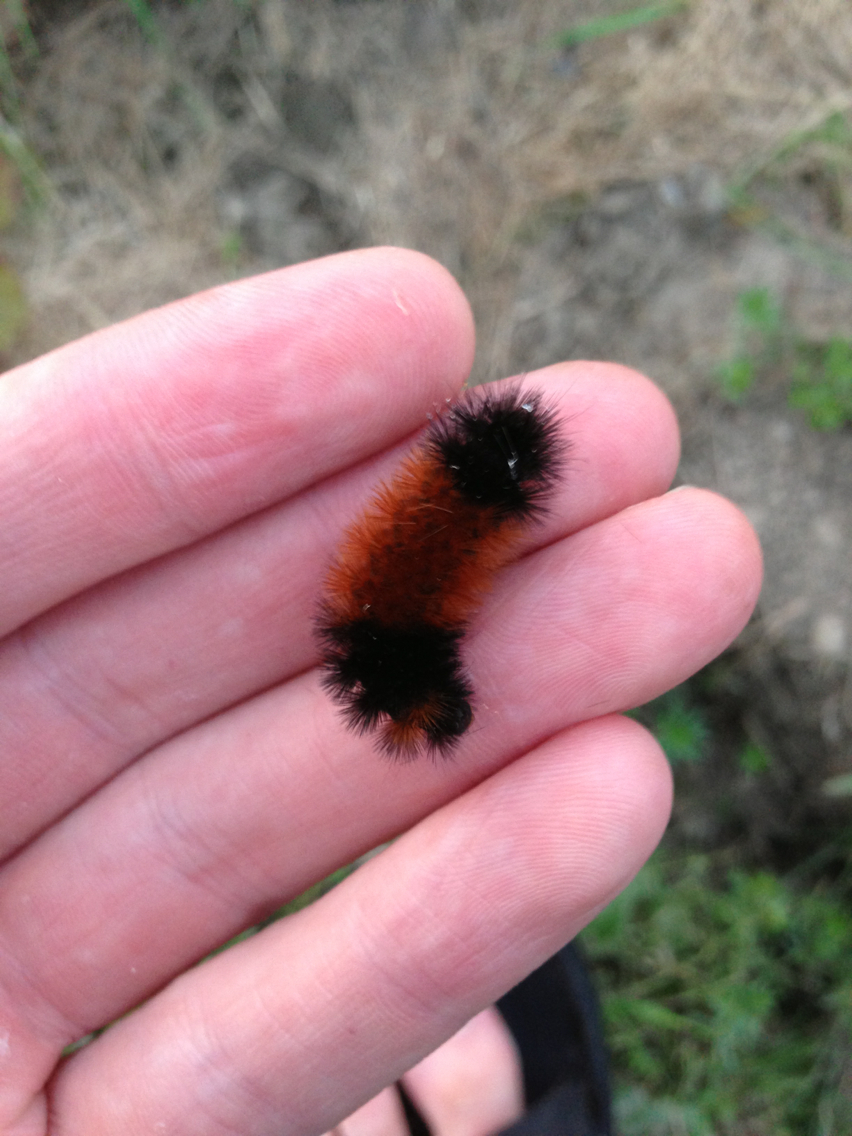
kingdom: Animalia
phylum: Arthropoda
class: Insecta
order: Lepidoptera
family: Erebidae
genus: Pyrrharctia
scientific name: Pyrrharctia isabella
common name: Isabella tiger moth
